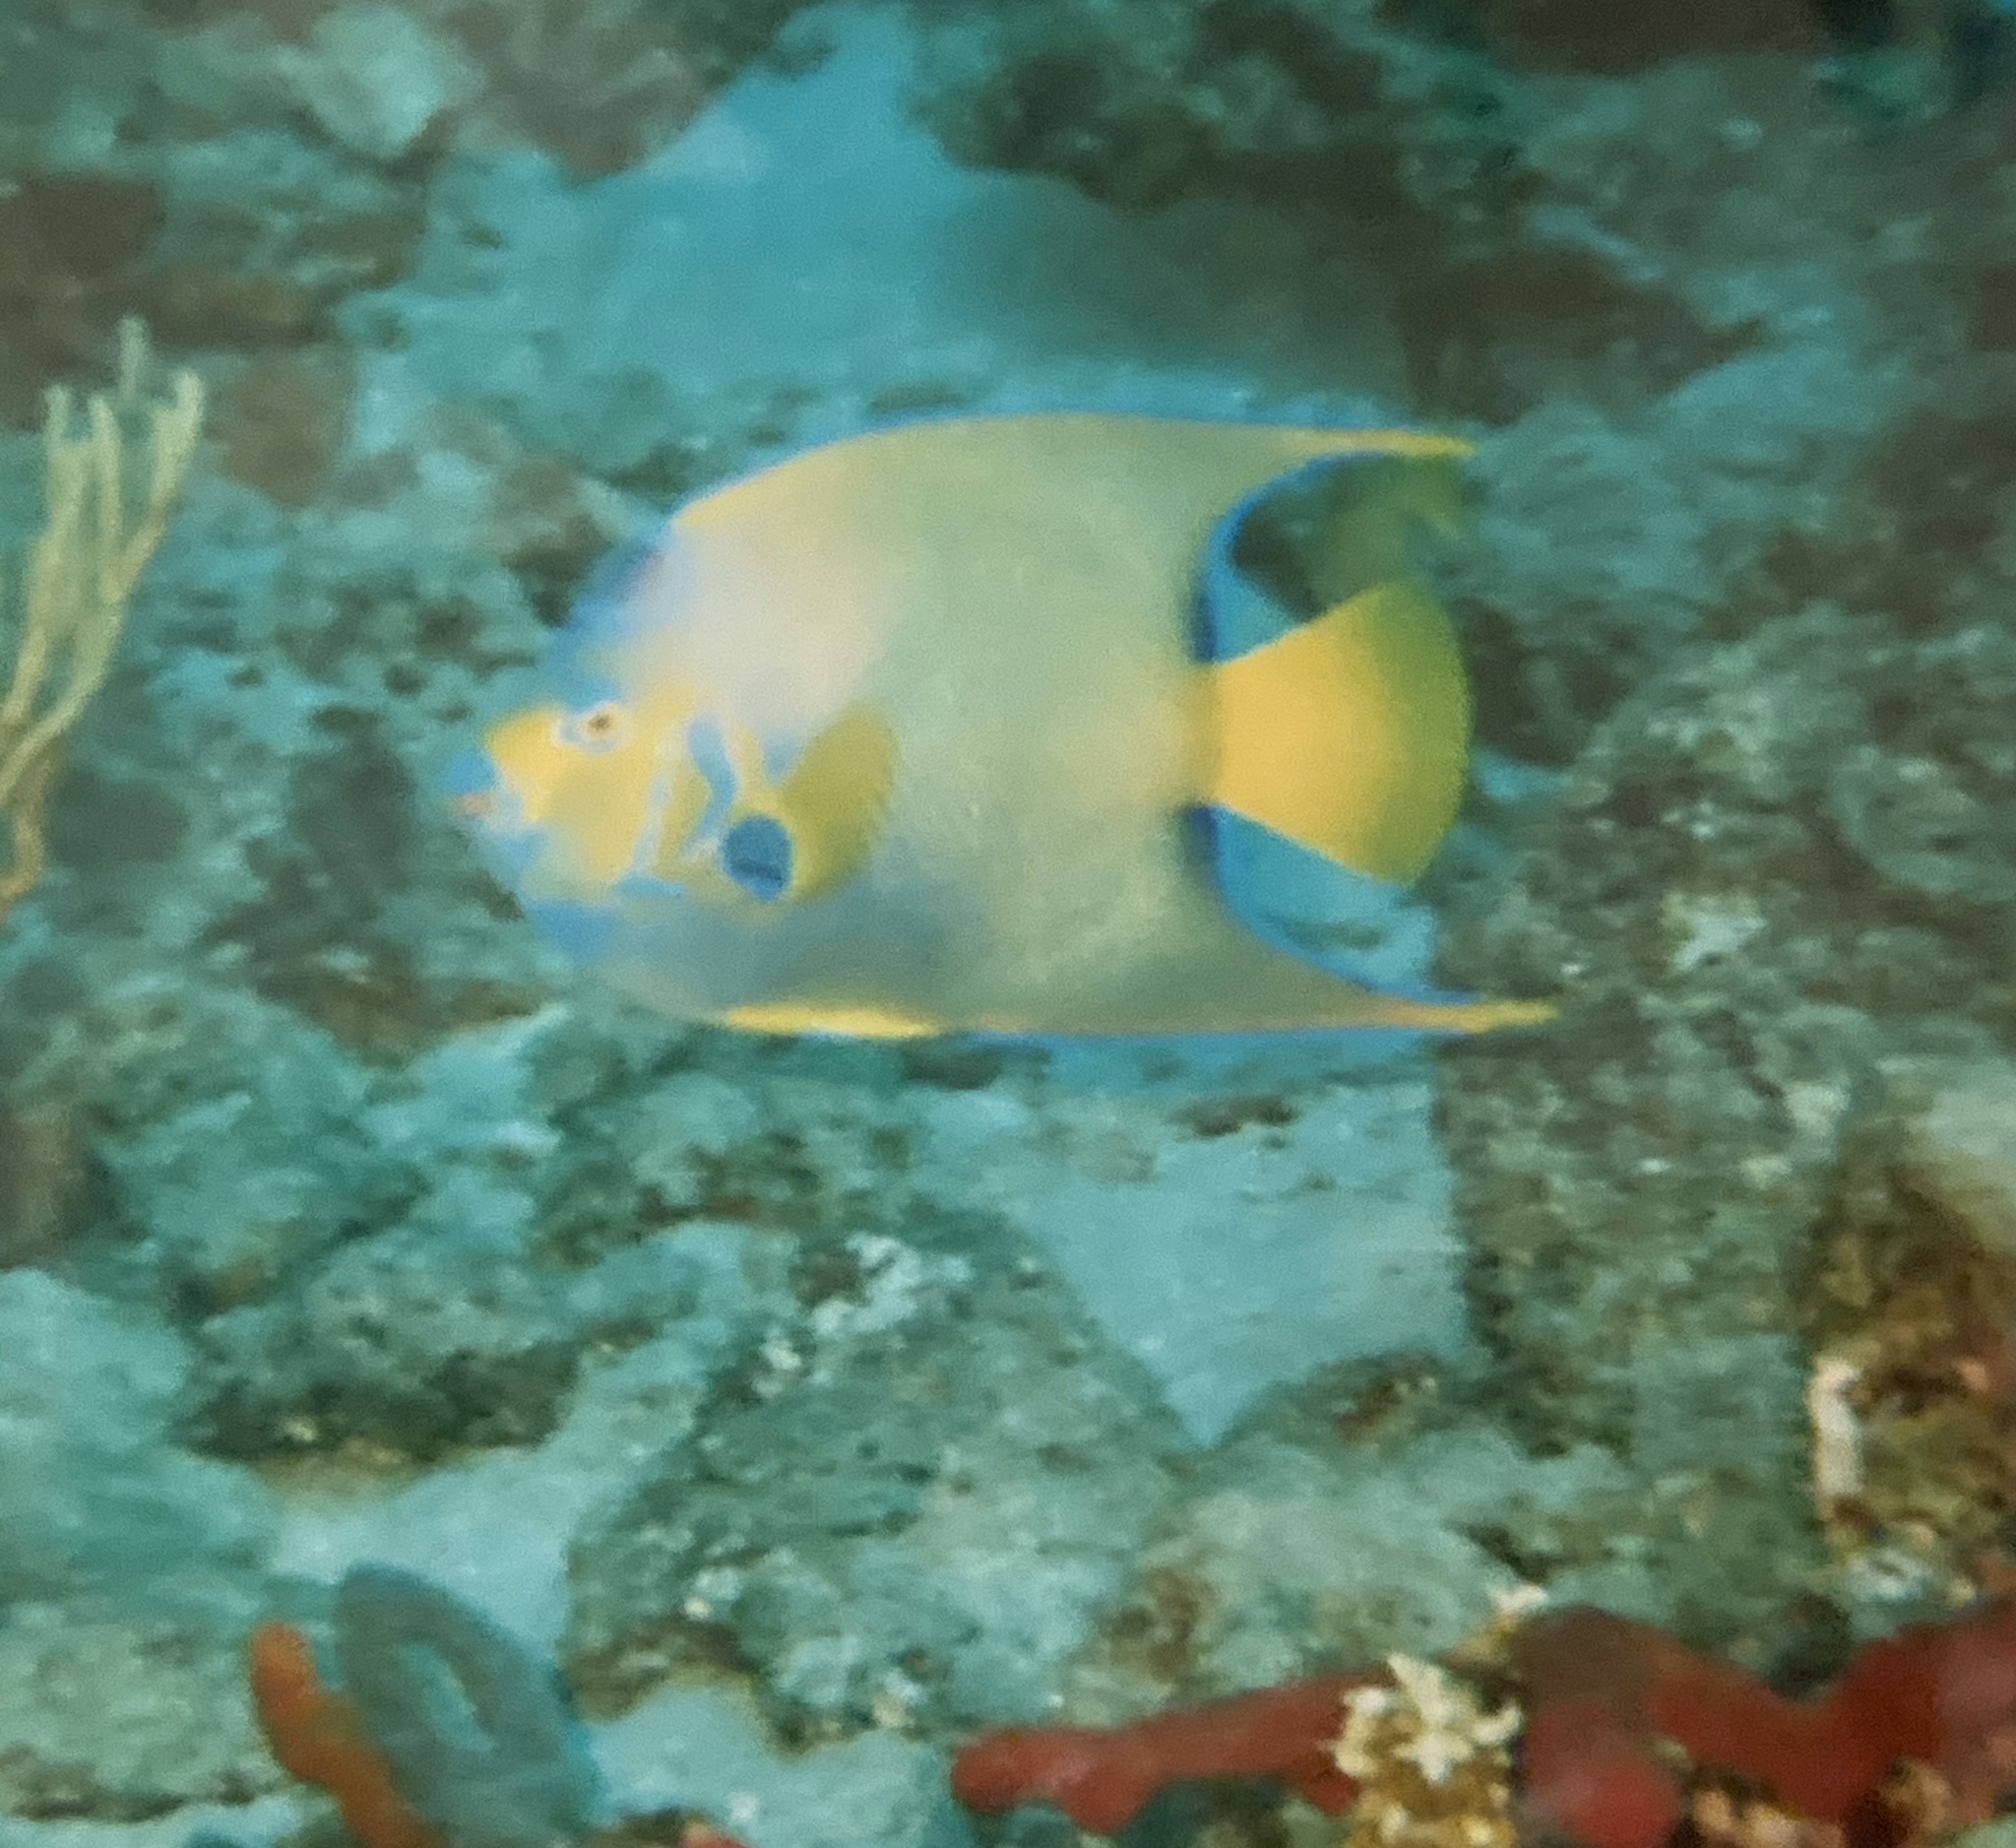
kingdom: Animalia
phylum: Chordata
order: Perciformes
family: Pomacanthidae
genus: Holacanthus
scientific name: Holacanthus ciliaris
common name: Queen angelfish
